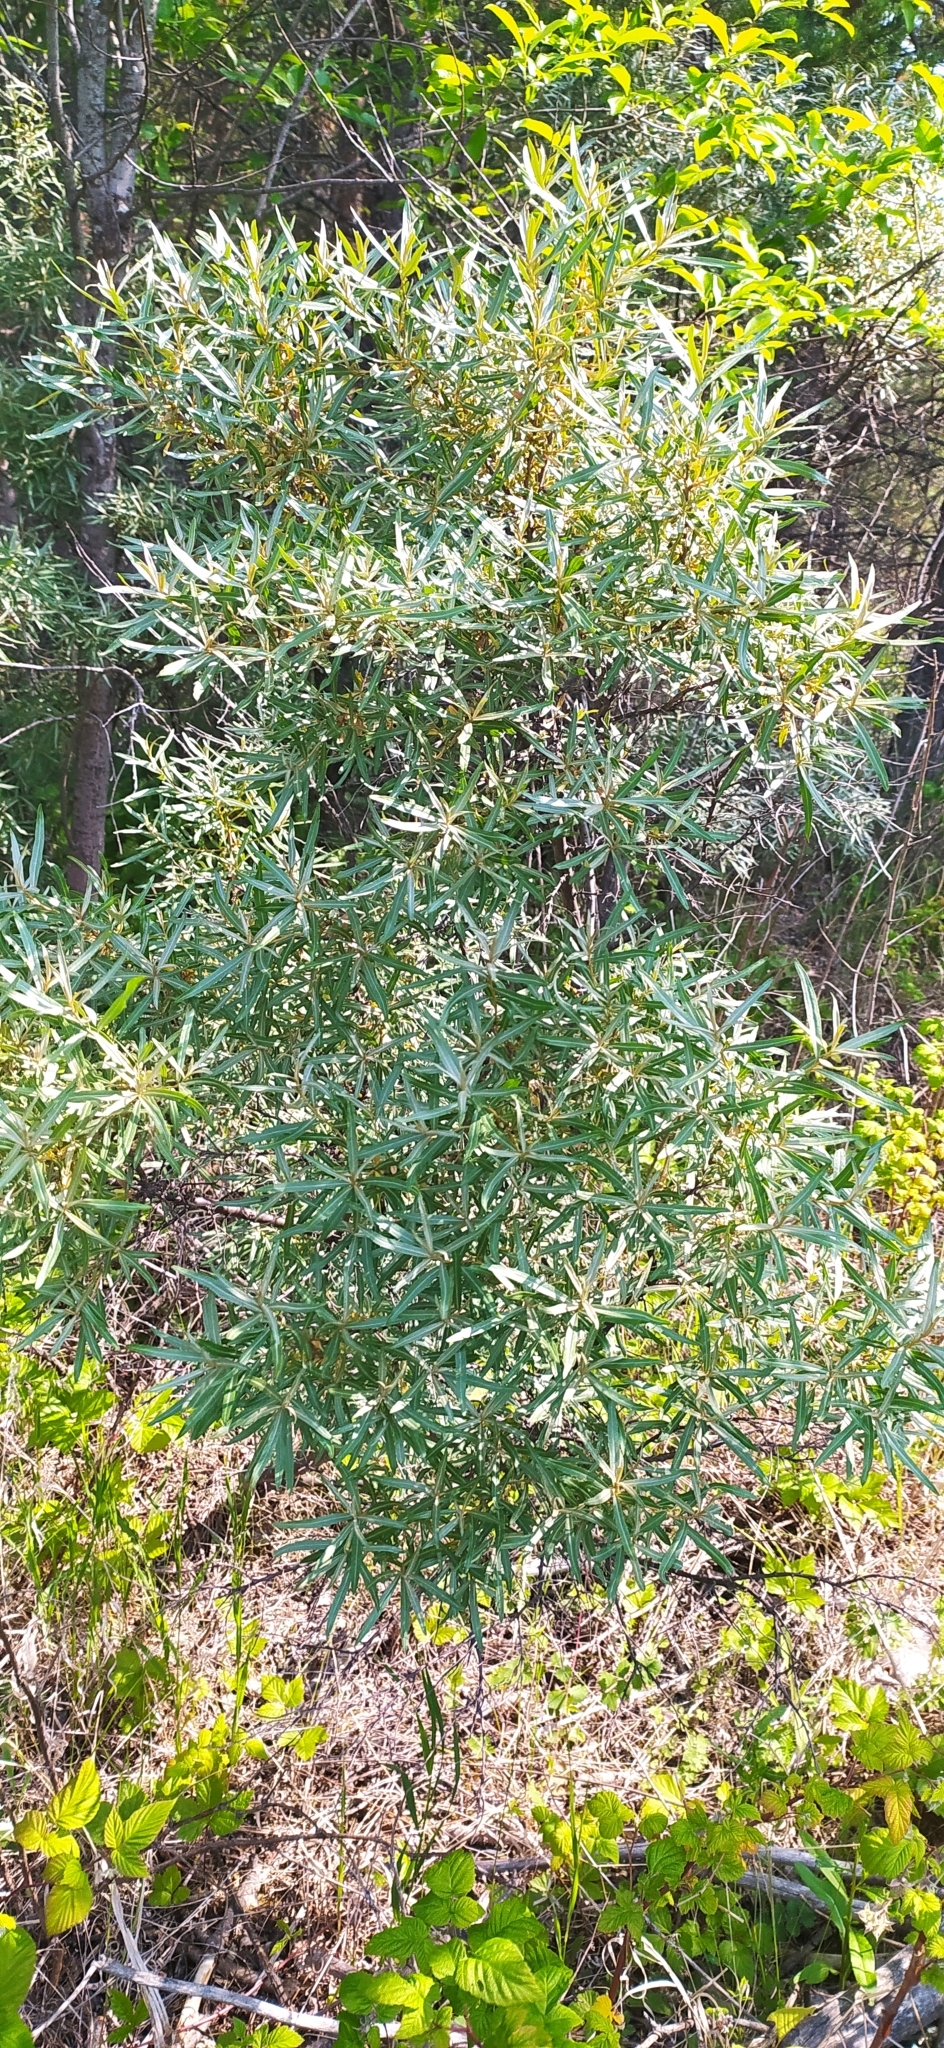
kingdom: Plantae
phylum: Tracheophyta
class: Magnoliopsida
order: Rosales
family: Elaeagnaceae
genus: Hippophae
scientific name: Hippophae rhamnoides
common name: Sea-buckthorn
